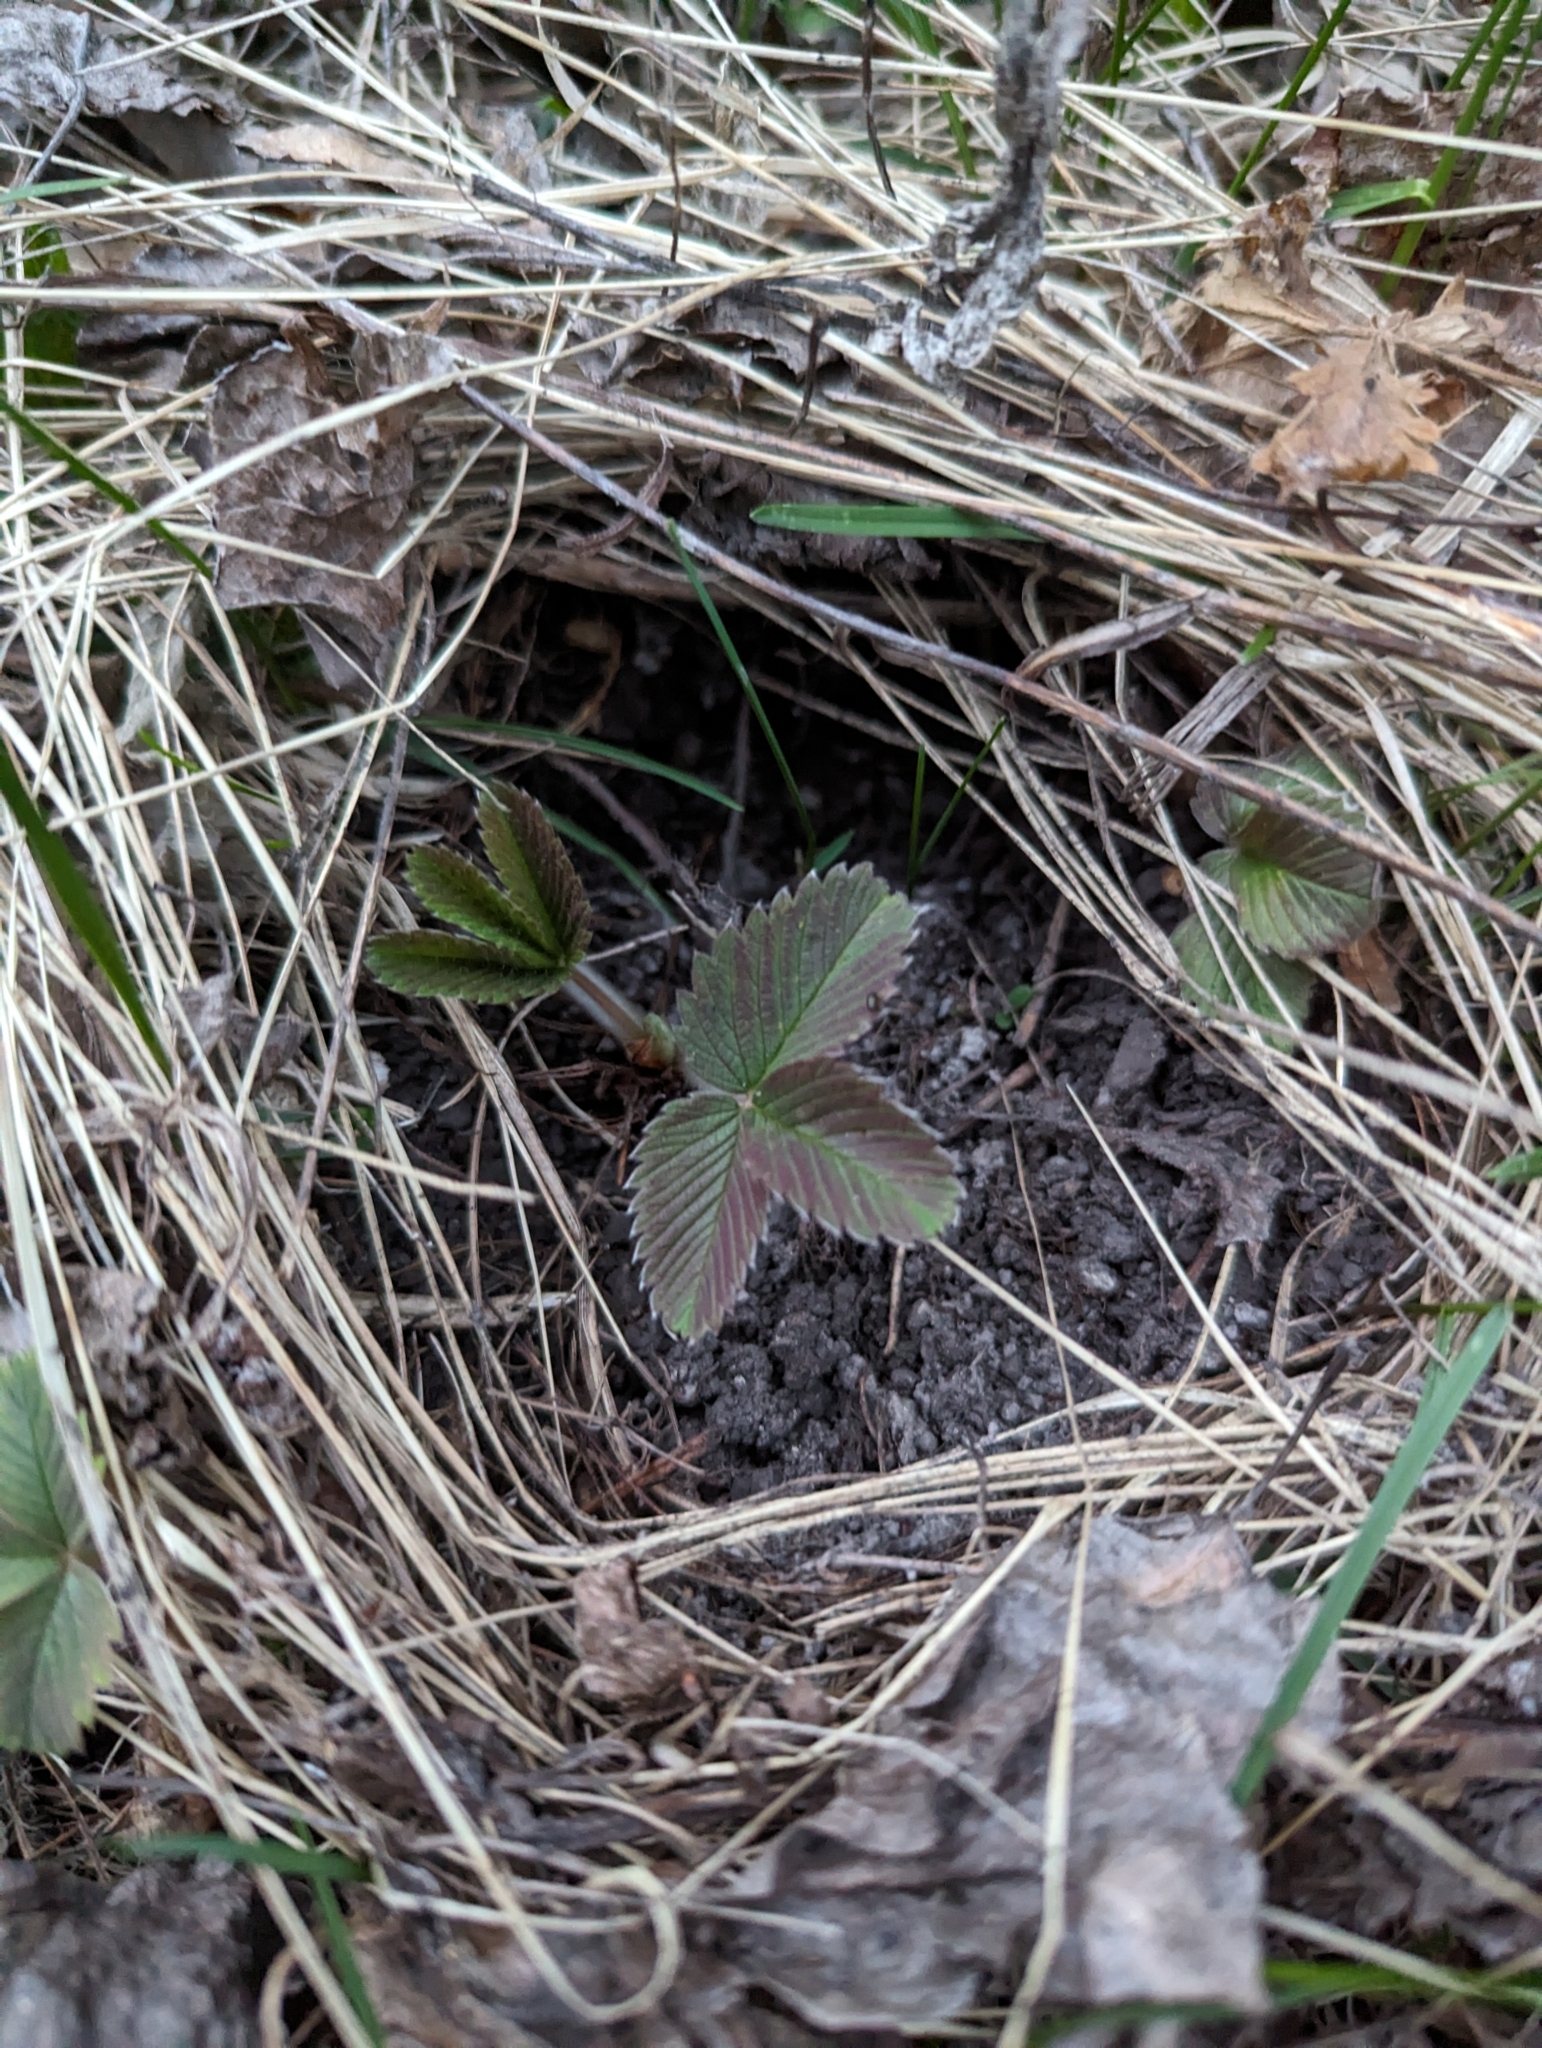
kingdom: Plantae
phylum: Tracheophyta
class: Magnoliopsida
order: Rosales
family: Rosaceae
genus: Fragaria
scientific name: Fragaria viridis
